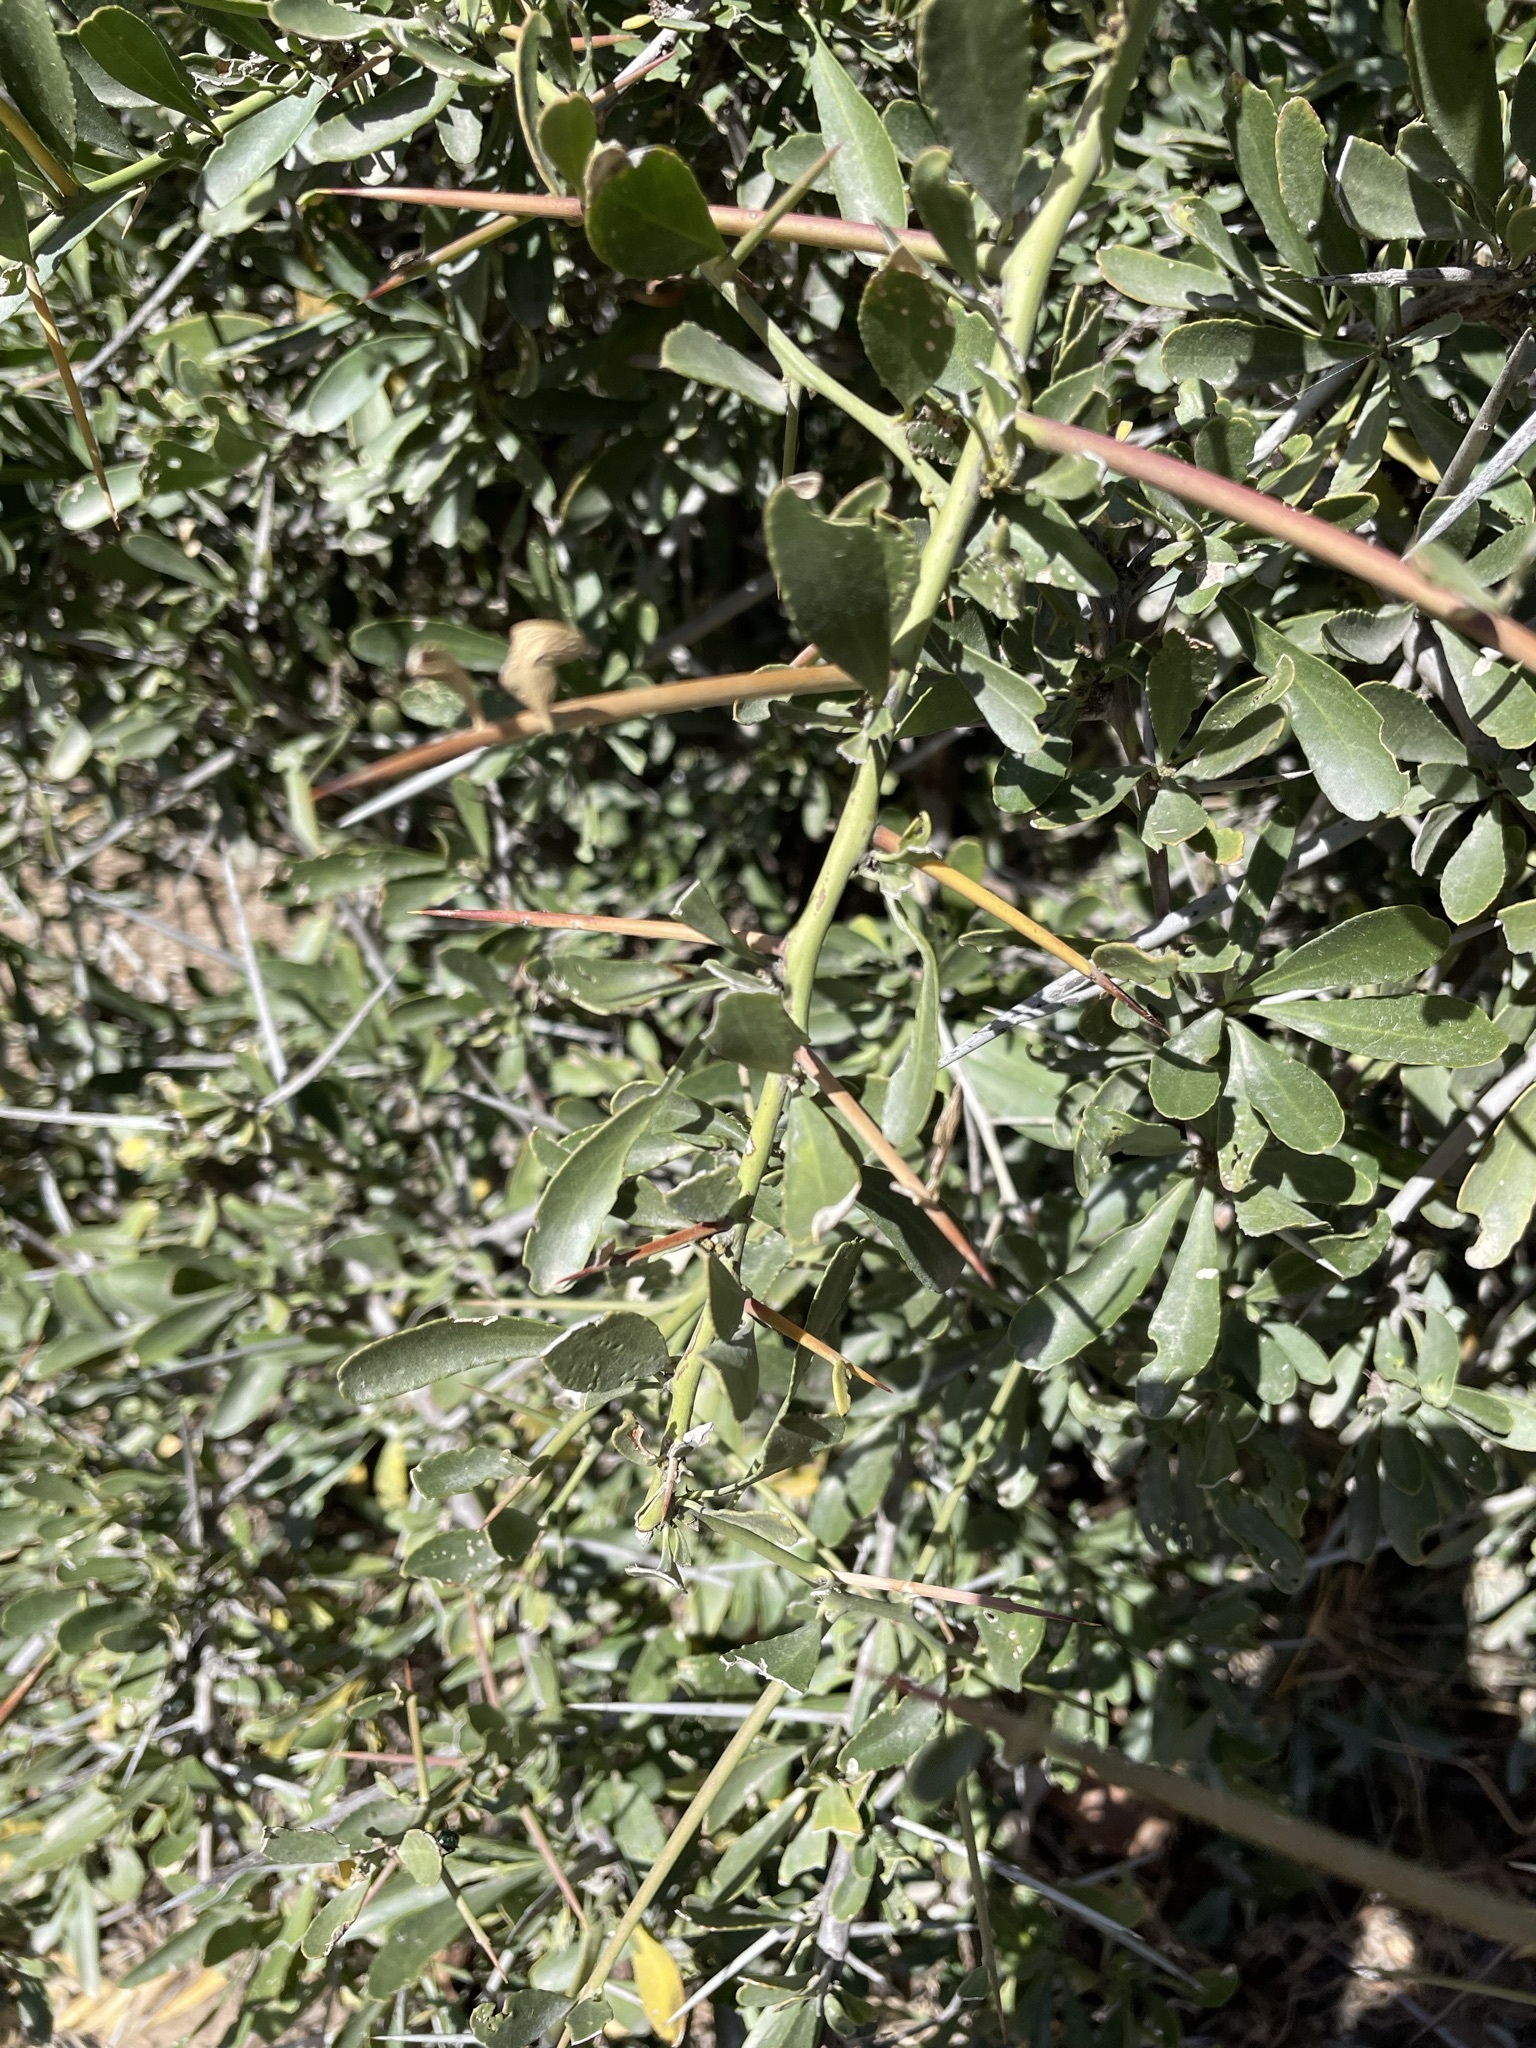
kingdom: Plantae
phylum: Tracheophyta
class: Magnoliopsida
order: Celastrales
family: Celastraceae
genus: Gymnosporia
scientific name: Gymnosporia buxifolia
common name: Common spike-thorn
